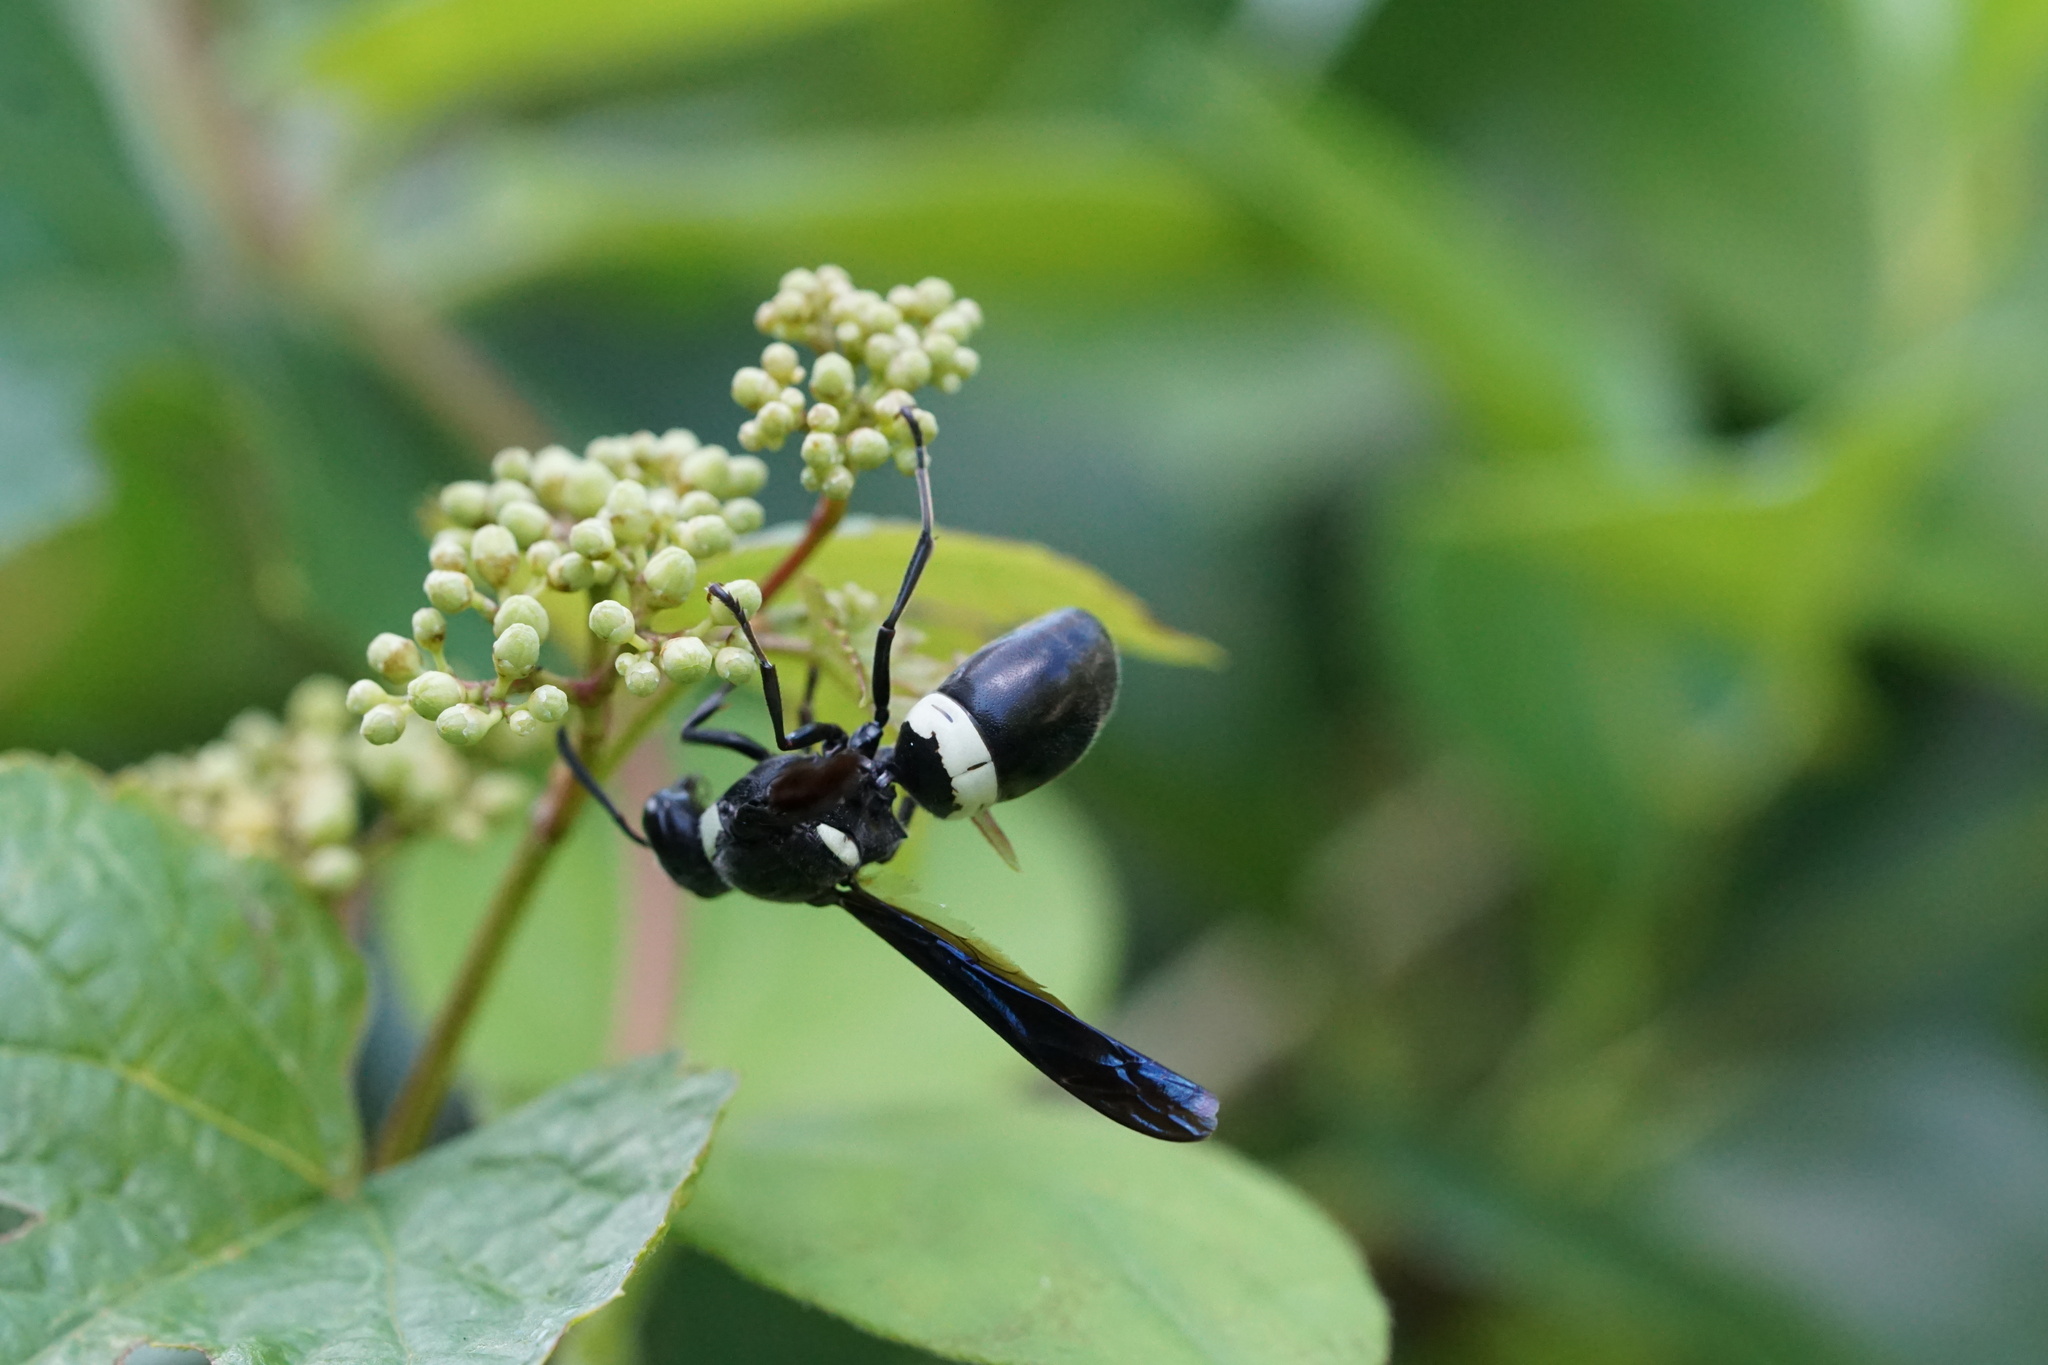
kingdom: Animalia
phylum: Arthropoda
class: Insecta
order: Hymenoptera
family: Eumenidae
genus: Monobia
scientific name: Monobia quadridens
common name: Four-toothed mason wasp
